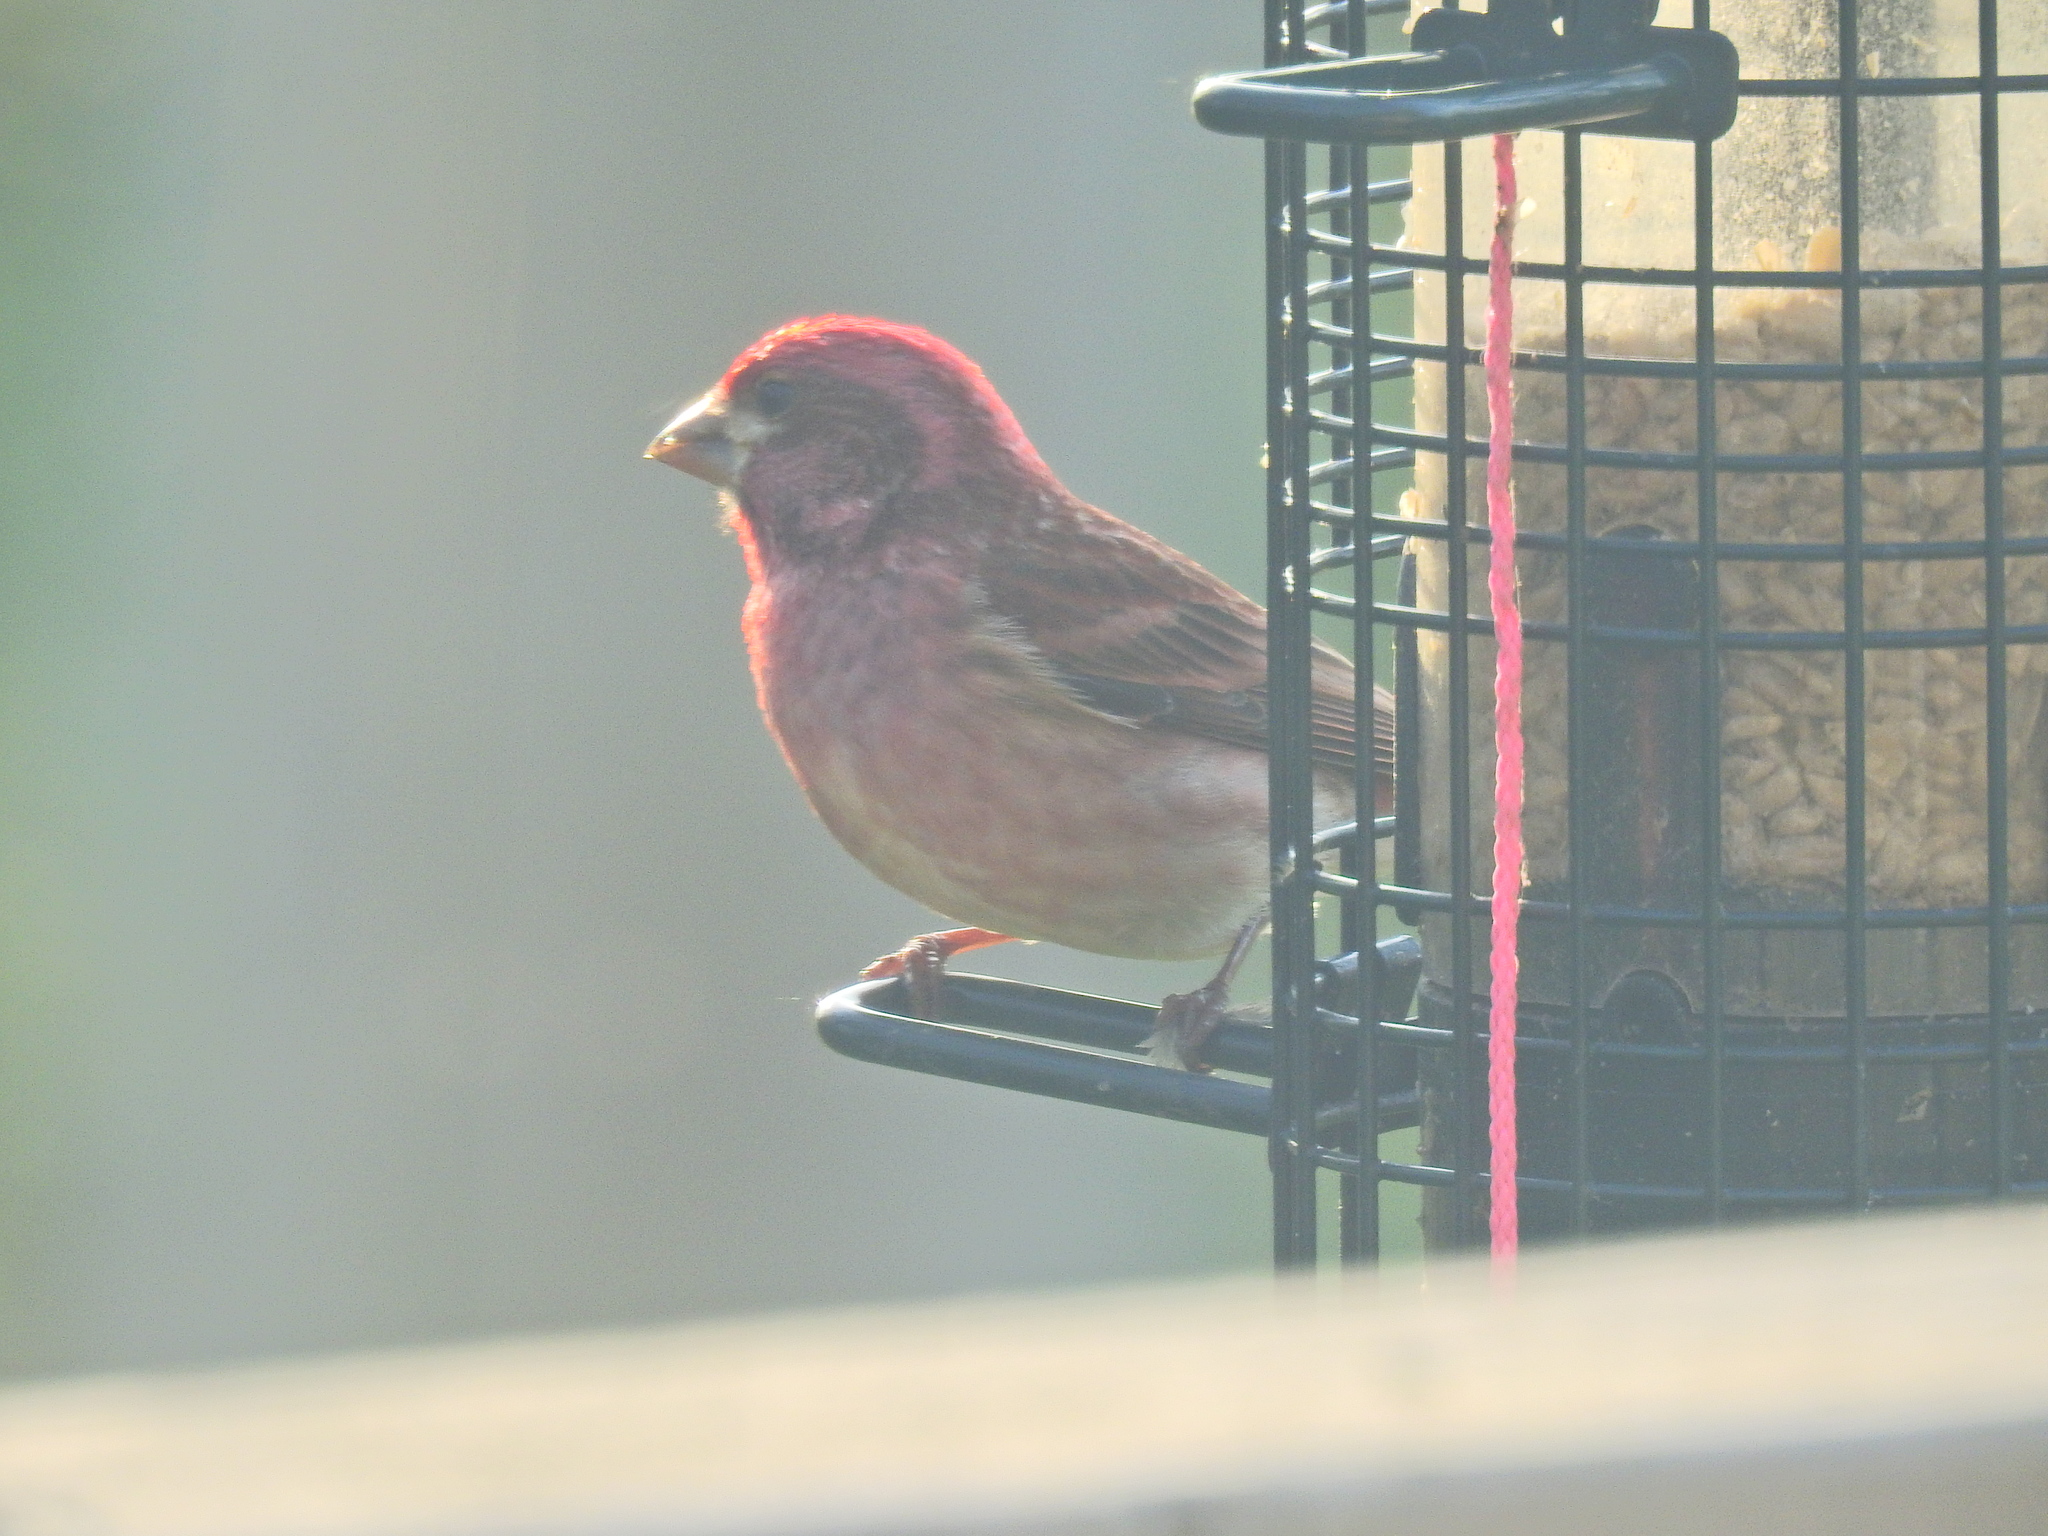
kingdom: Animalia
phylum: Chordata
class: Aves
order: Passeriformes
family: Fringillidae
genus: Haemorhous
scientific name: Haemorhous purpureus
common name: Purple finch
